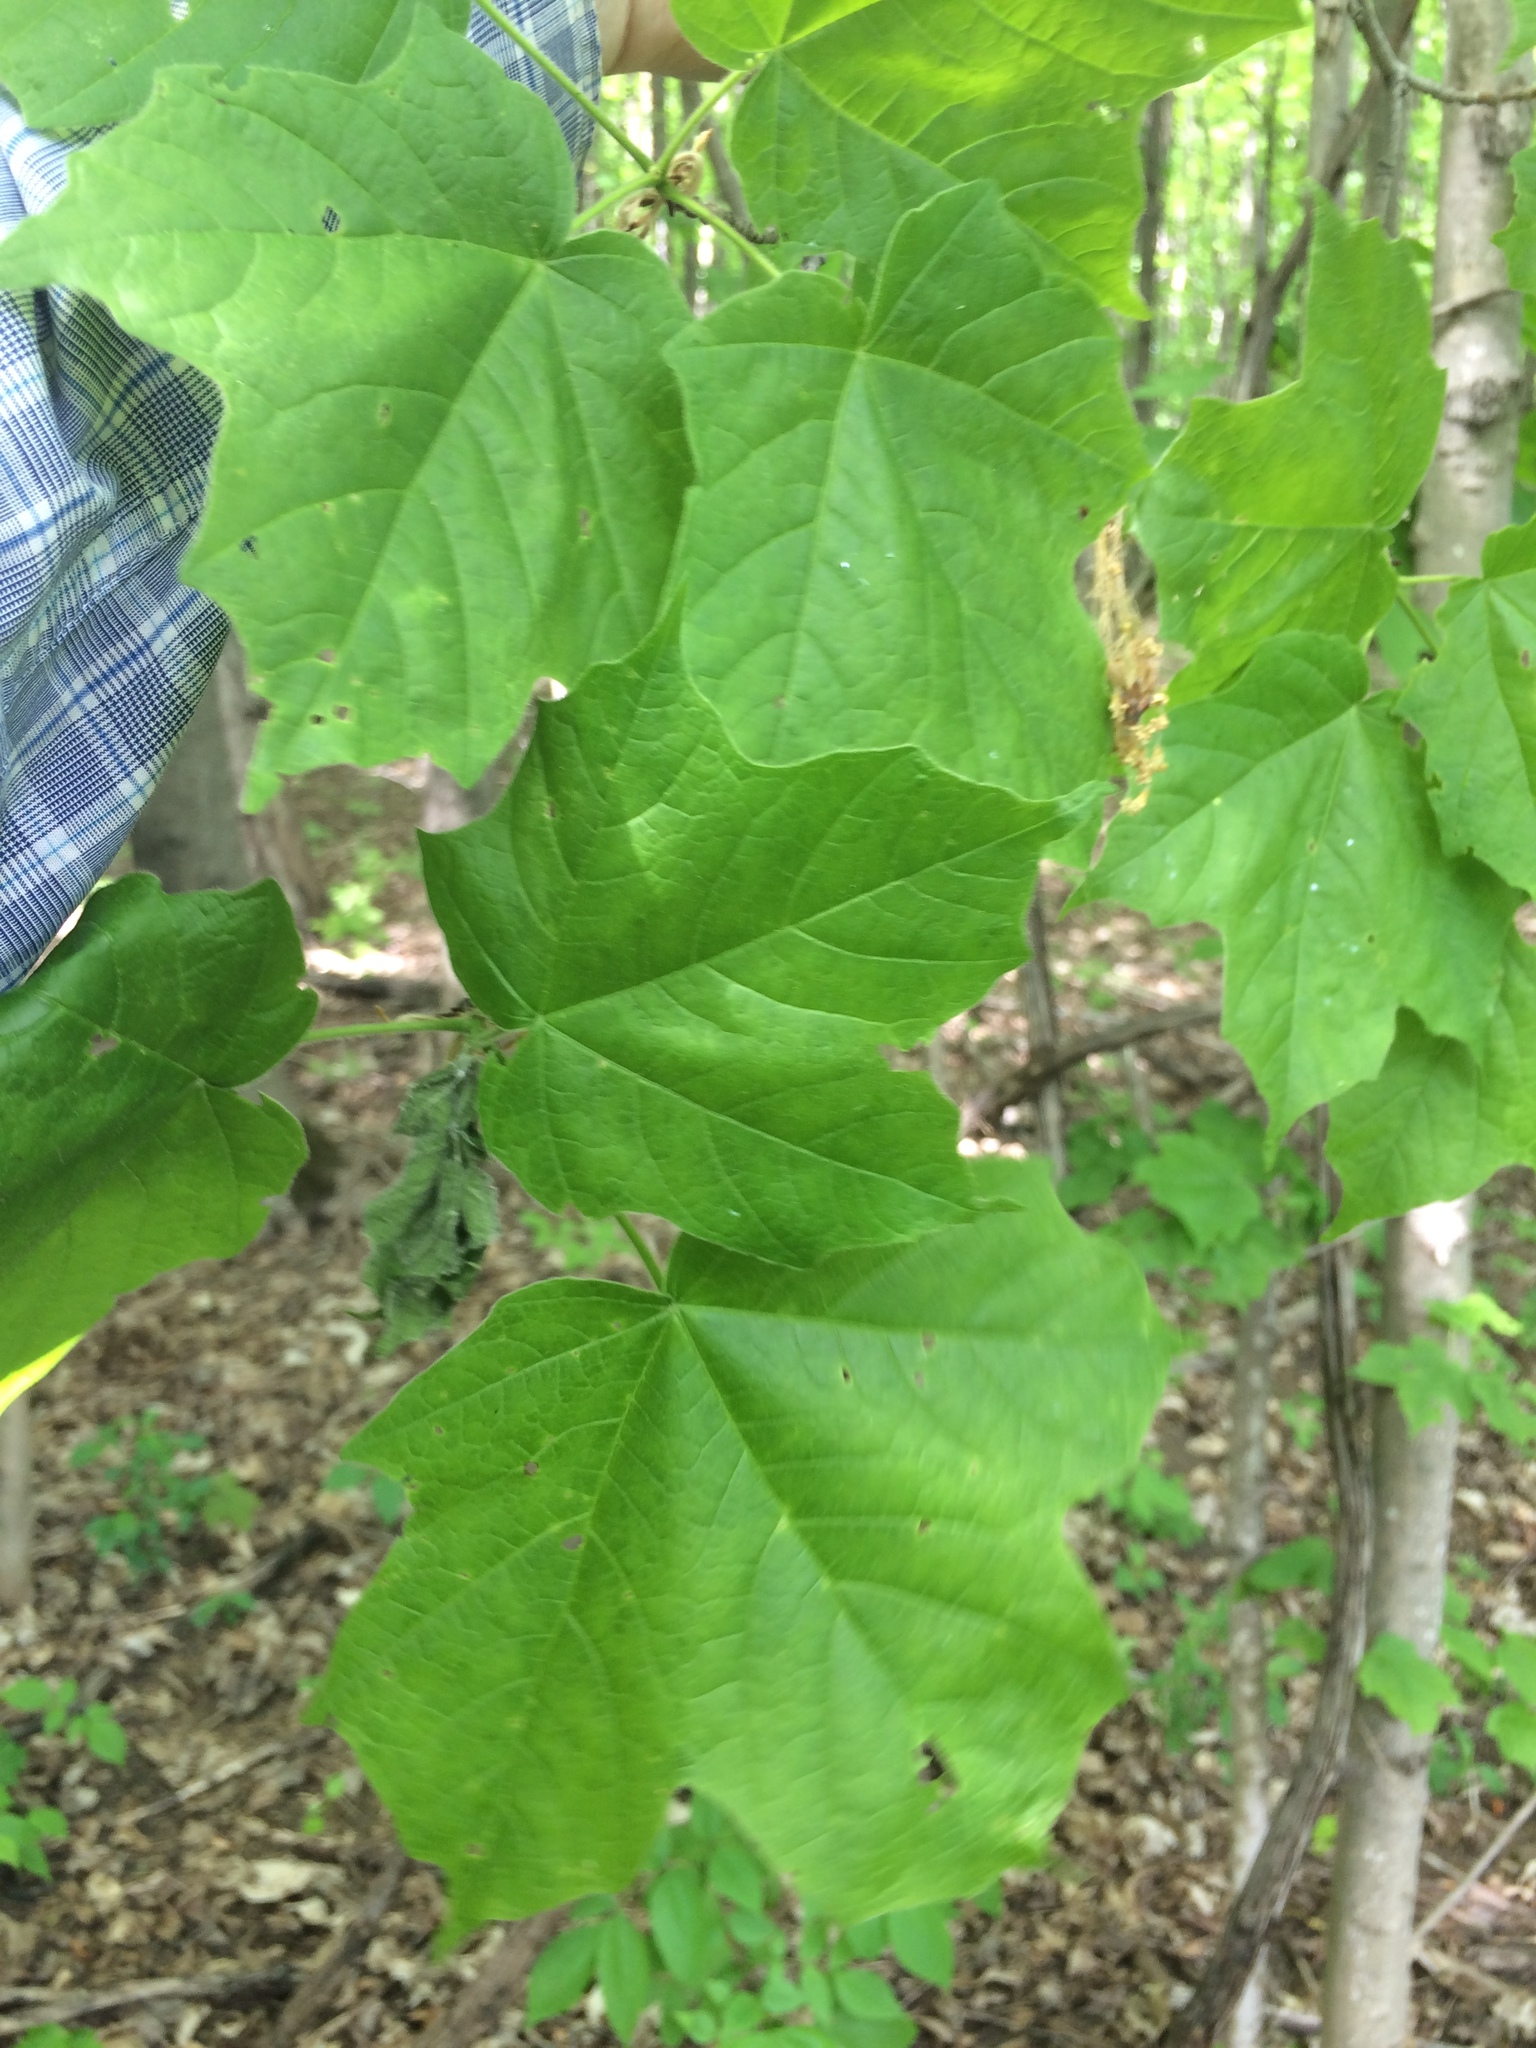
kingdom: Plantae
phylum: Tracheophyta
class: Magnoliopsida
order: Sapindales
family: Sapindaceae
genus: Acer
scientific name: Acer nigrum
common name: Black maple
